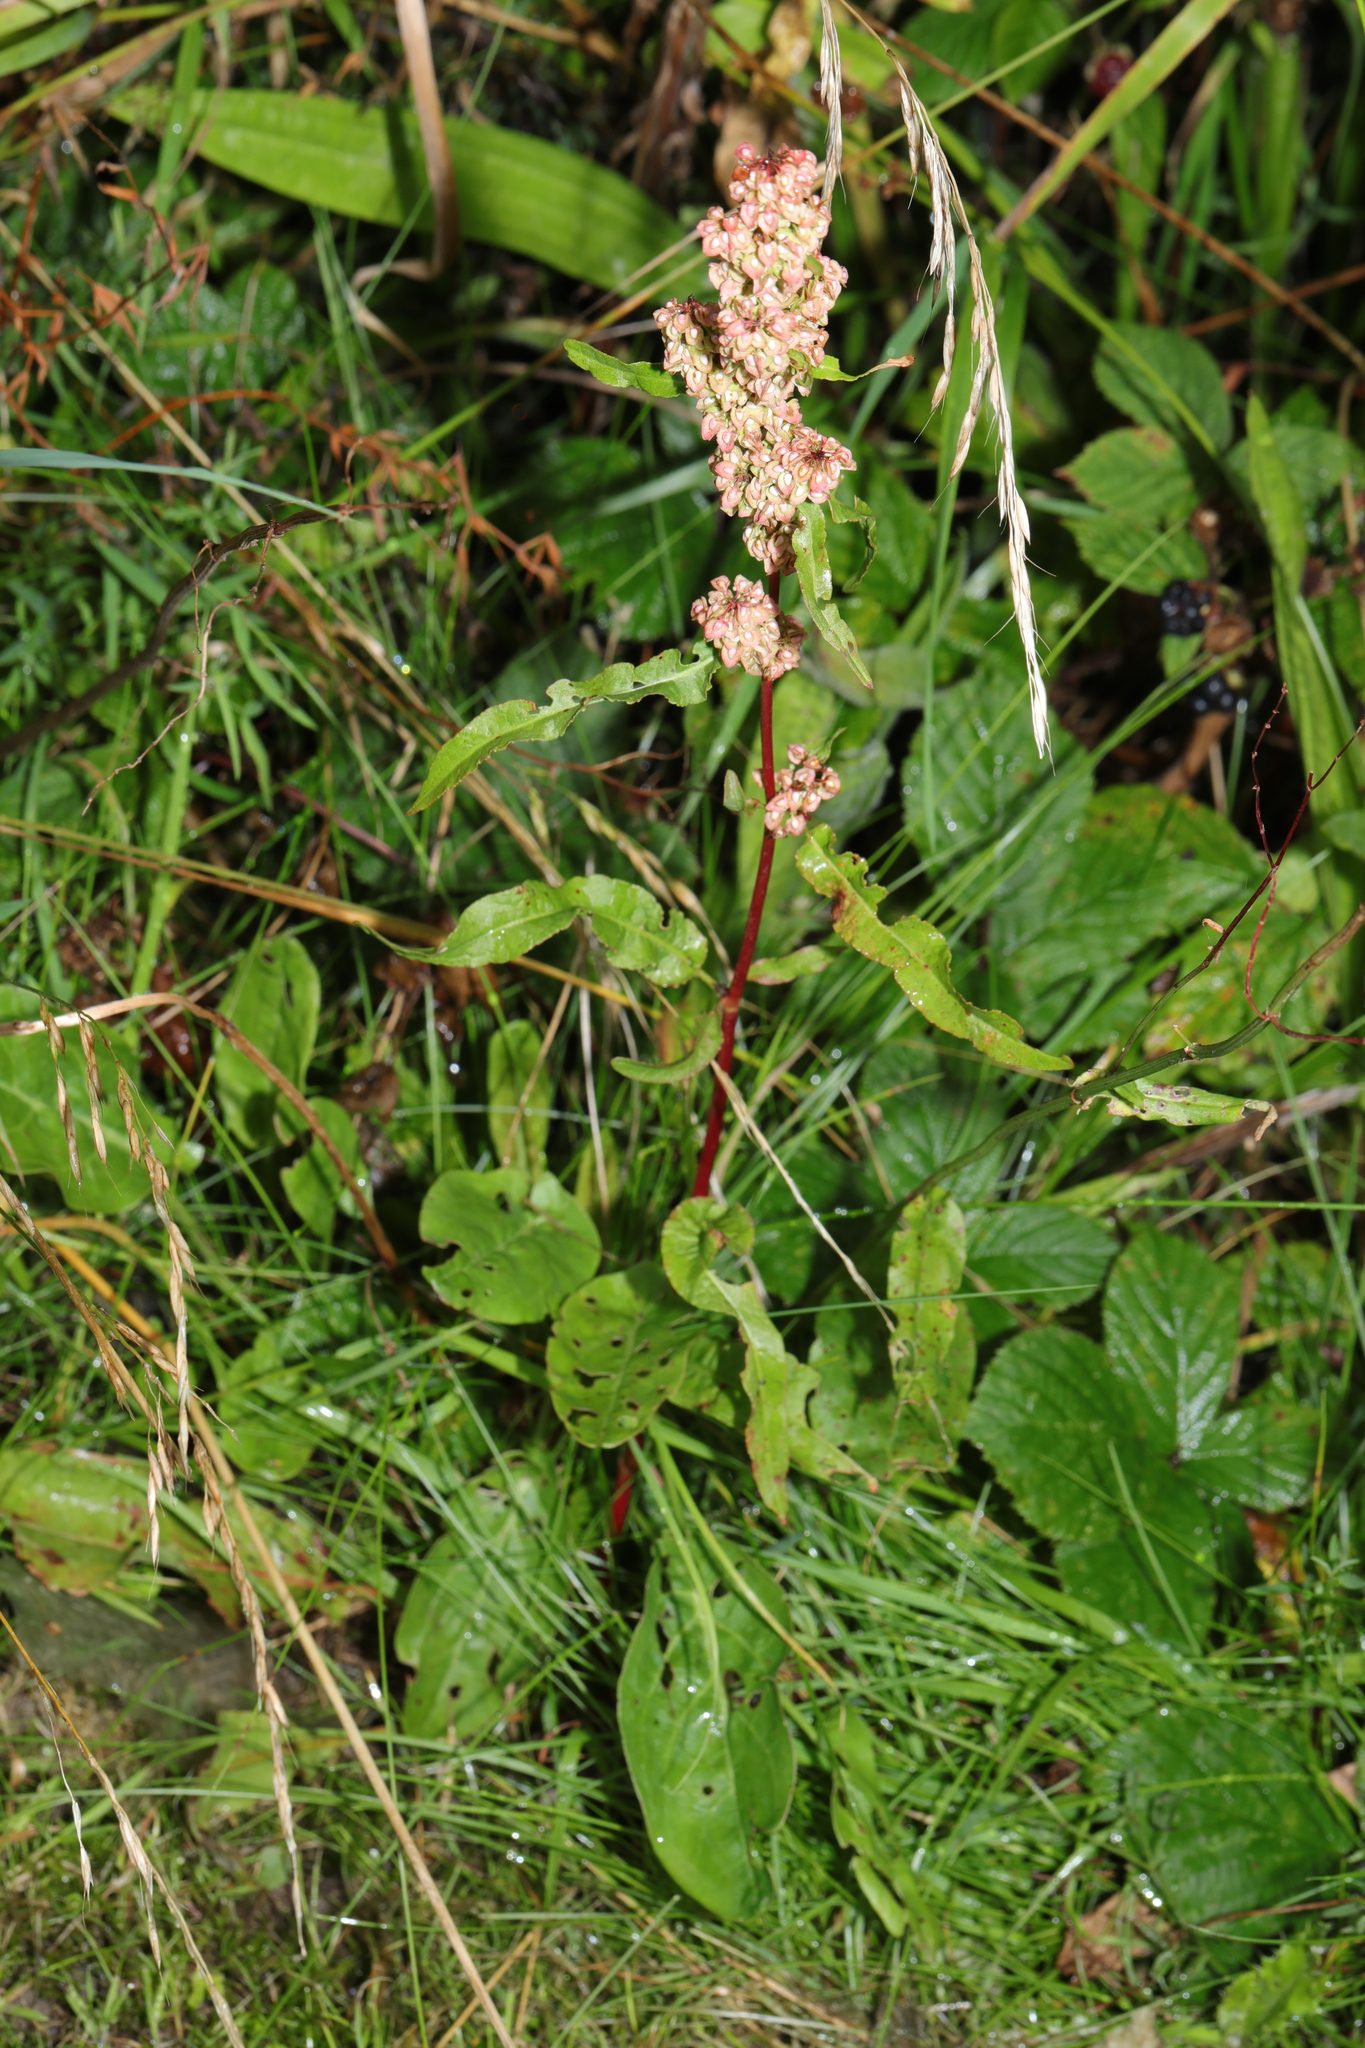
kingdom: Plantae
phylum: Tracheophyta
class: Magnoliopsida
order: Caryophyllales
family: Polygonaceae
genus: Rumex
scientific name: Rumex crispus
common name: Curled dock
